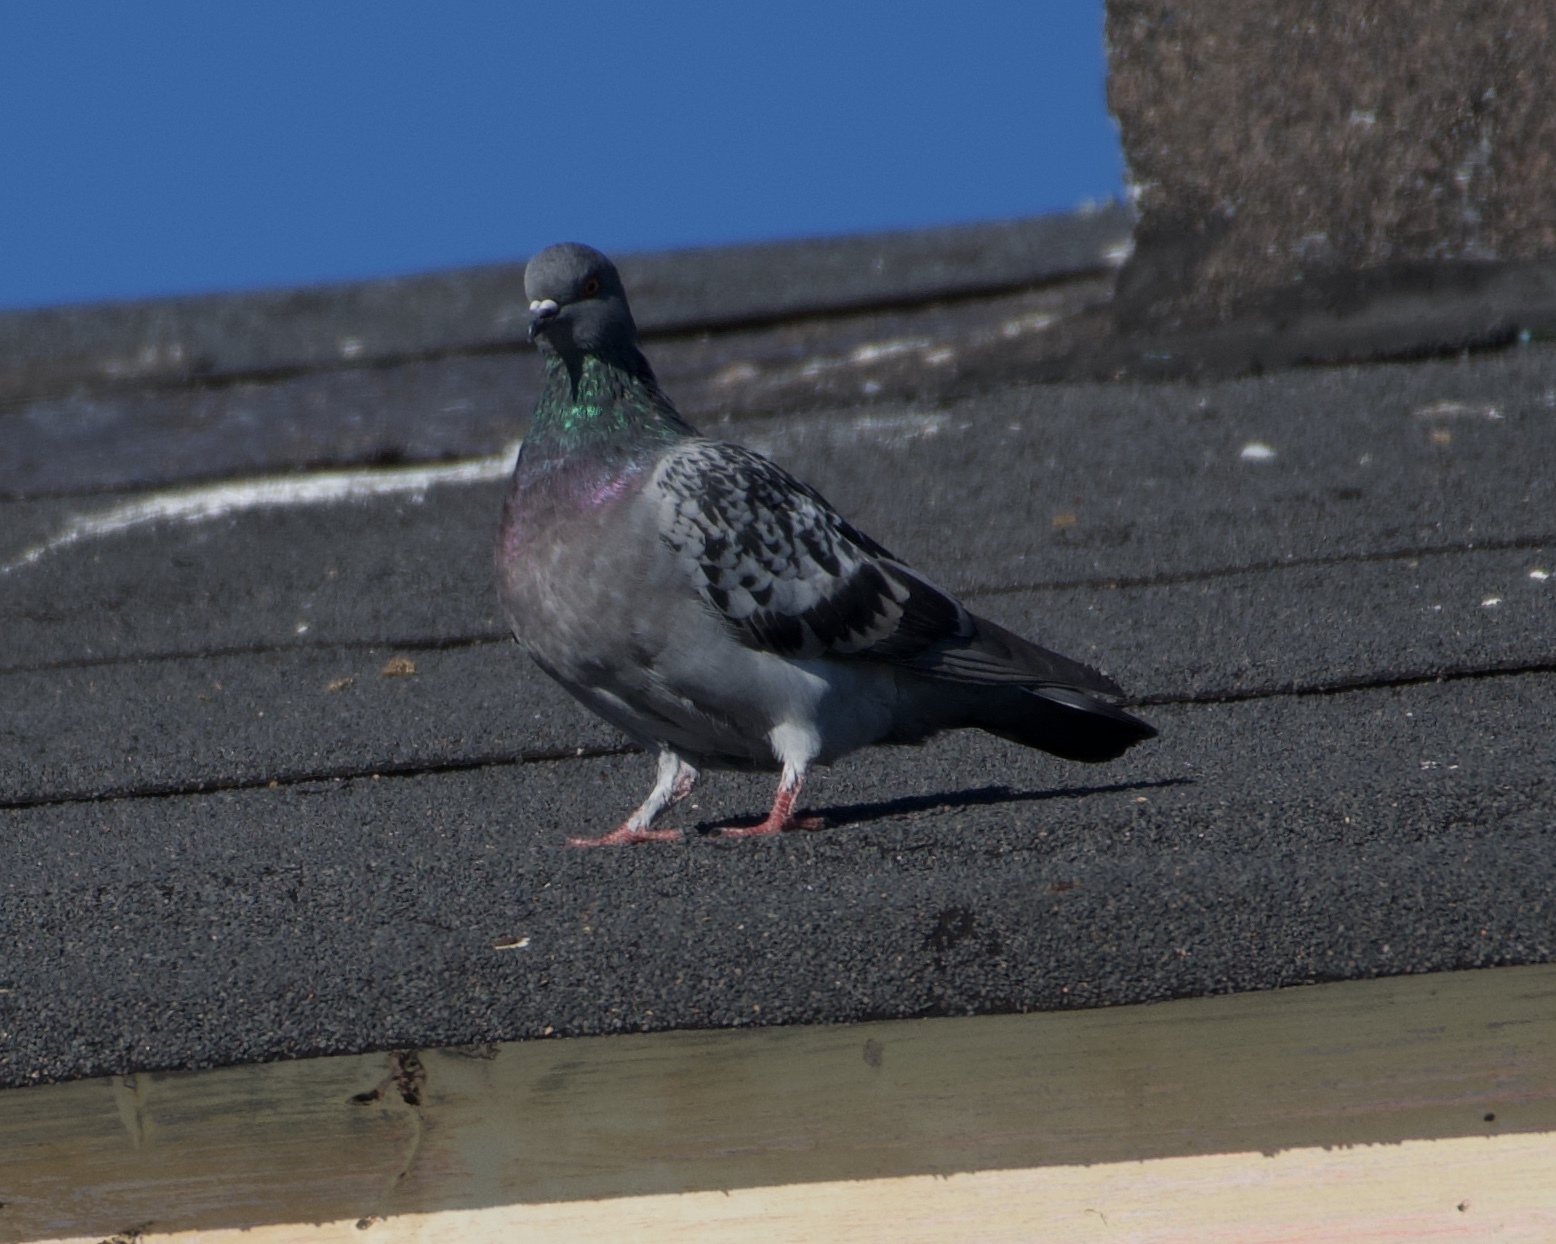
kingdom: Animalia
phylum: Chordata
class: Aves
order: Columbiformes
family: Columbidae
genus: Columba
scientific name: Columba livia
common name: Rock pigeon
